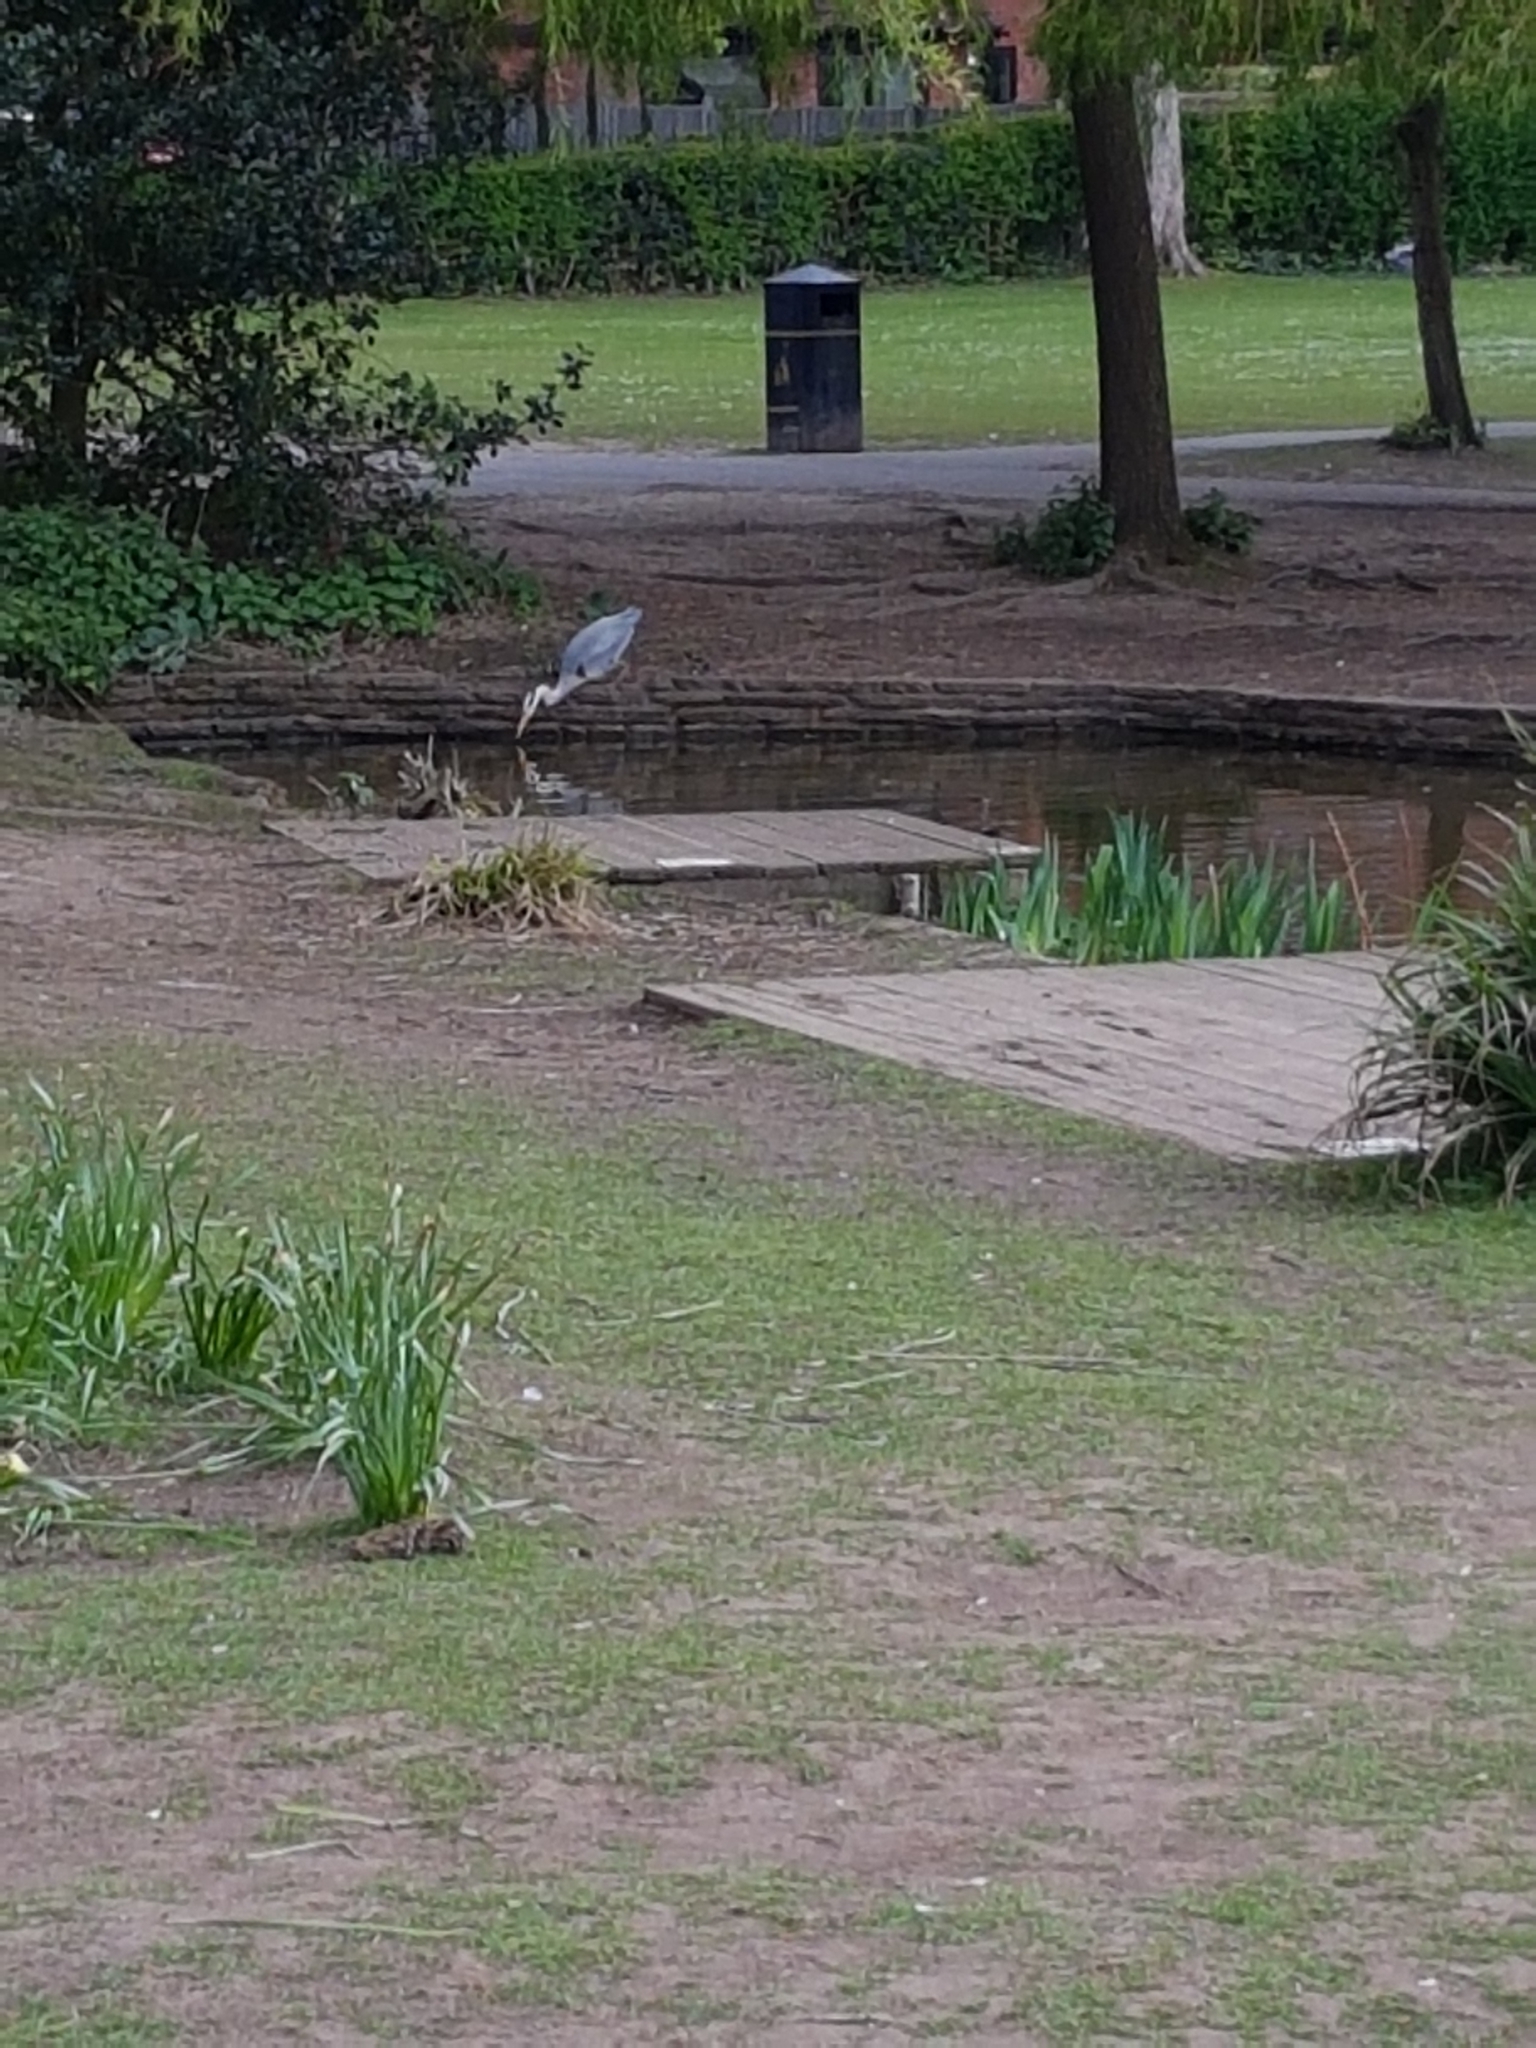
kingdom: Animalia
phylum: Chordata
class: Aves
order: Pelecaniformes
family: Ardeidae
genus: Ardea
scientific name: Ardea cinerea
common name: Grey heron
